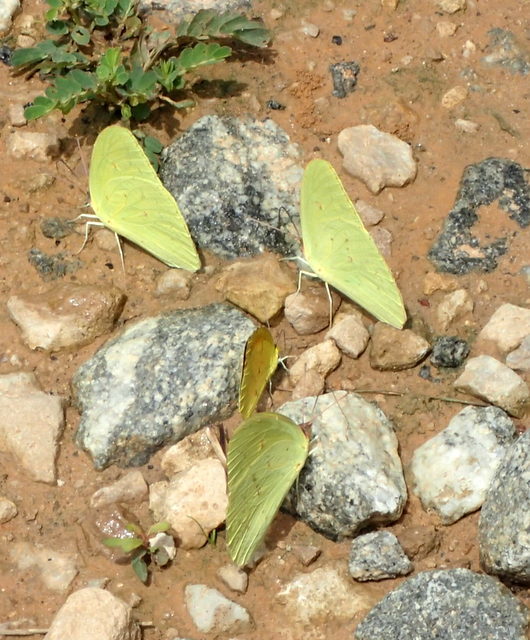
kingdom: Animalia
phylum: Arthropoda
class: Insecta
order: Lepidoptera
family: Pieridae
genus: Phoebis
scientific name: Phoebis sennae
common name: Cloudless sulphur
